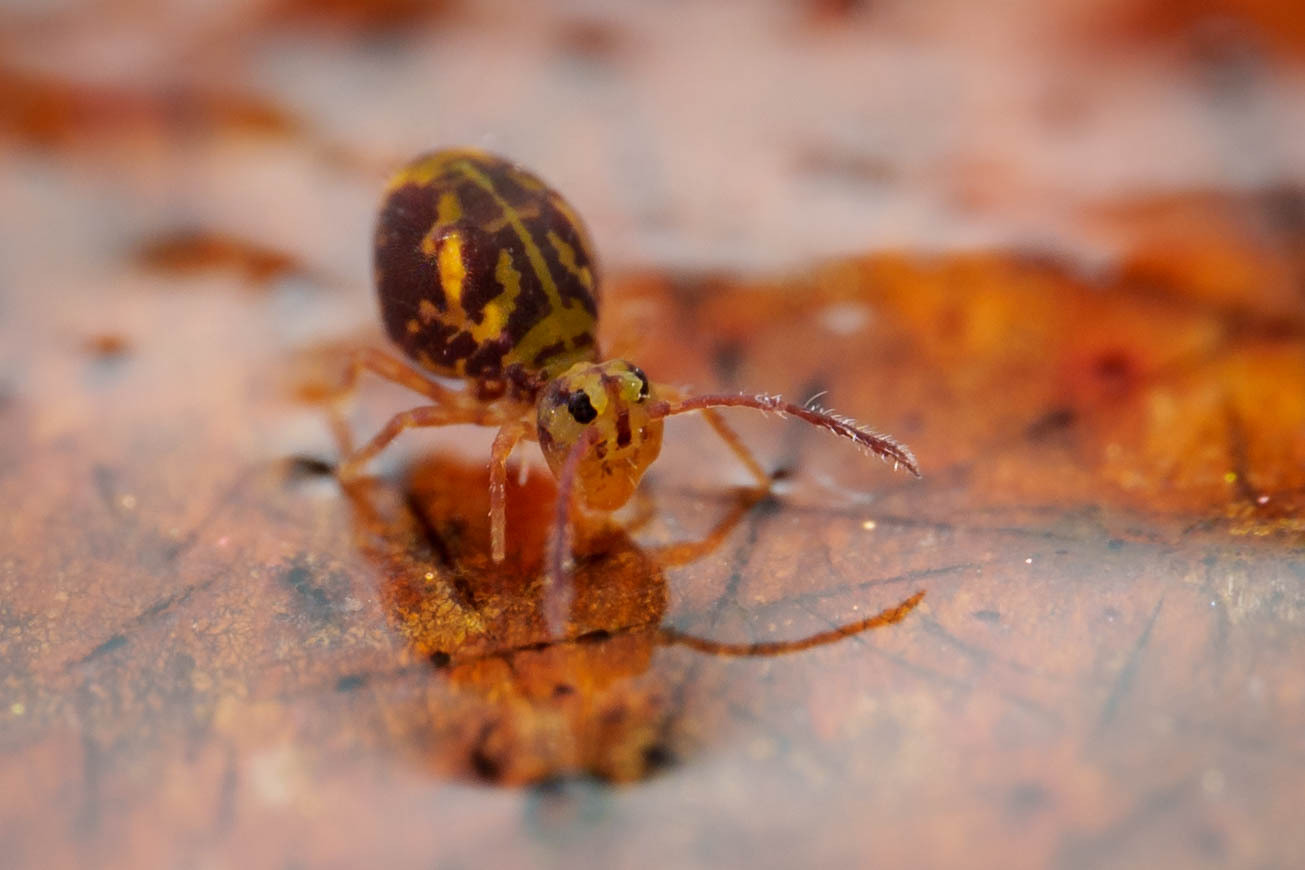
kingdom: Animalia
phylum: Arthropoda
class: Collembola
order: Symphypleona
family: Dicyrtomidae
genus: Dicyrtomina
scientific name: Dicyrtomina minuta
